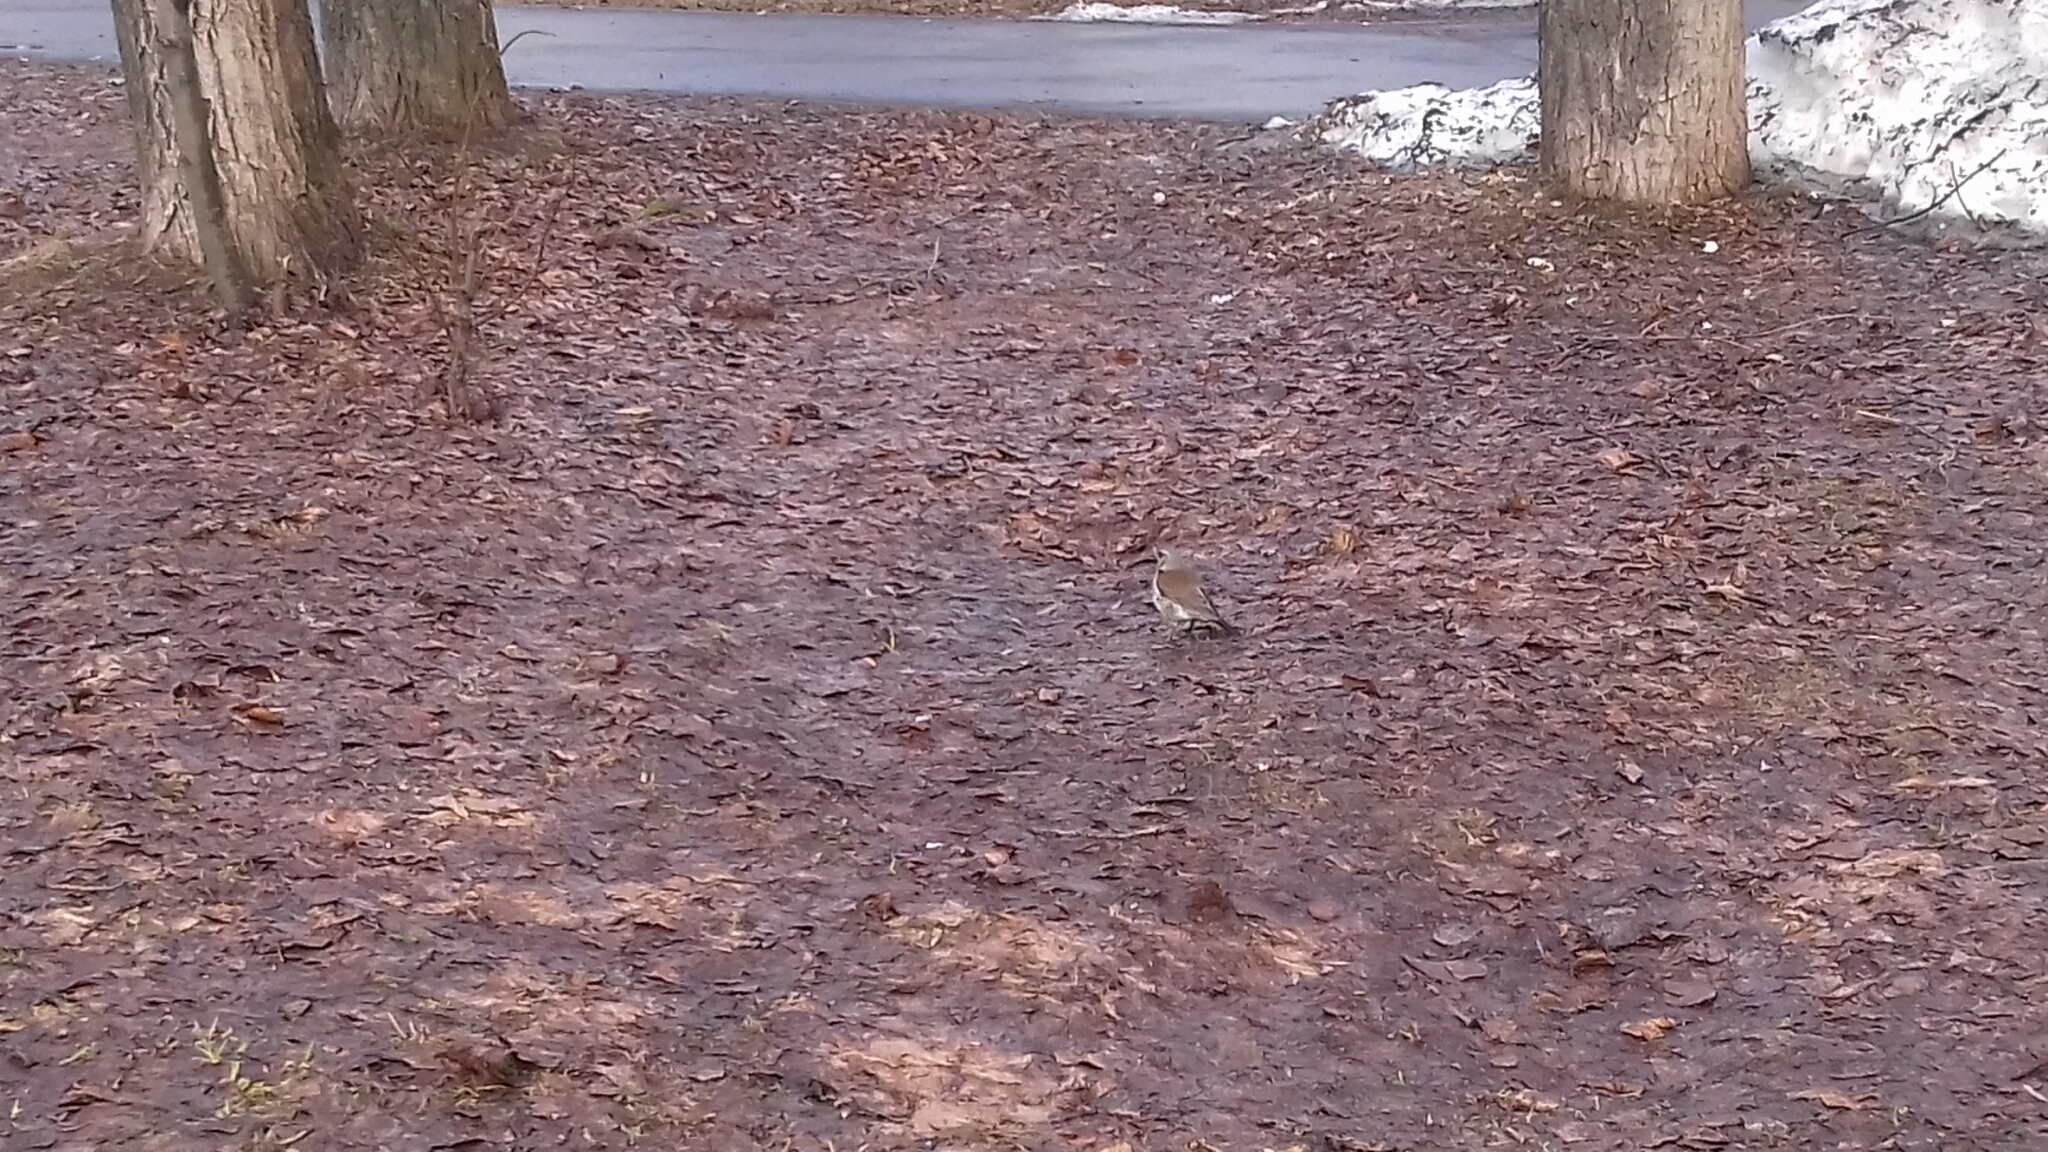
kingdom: Animalia
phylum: Chordata
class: Aves
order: Passeriformes
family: Turdidae
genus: Turdus
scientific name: Turdus pilaris
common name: Fieldfare
